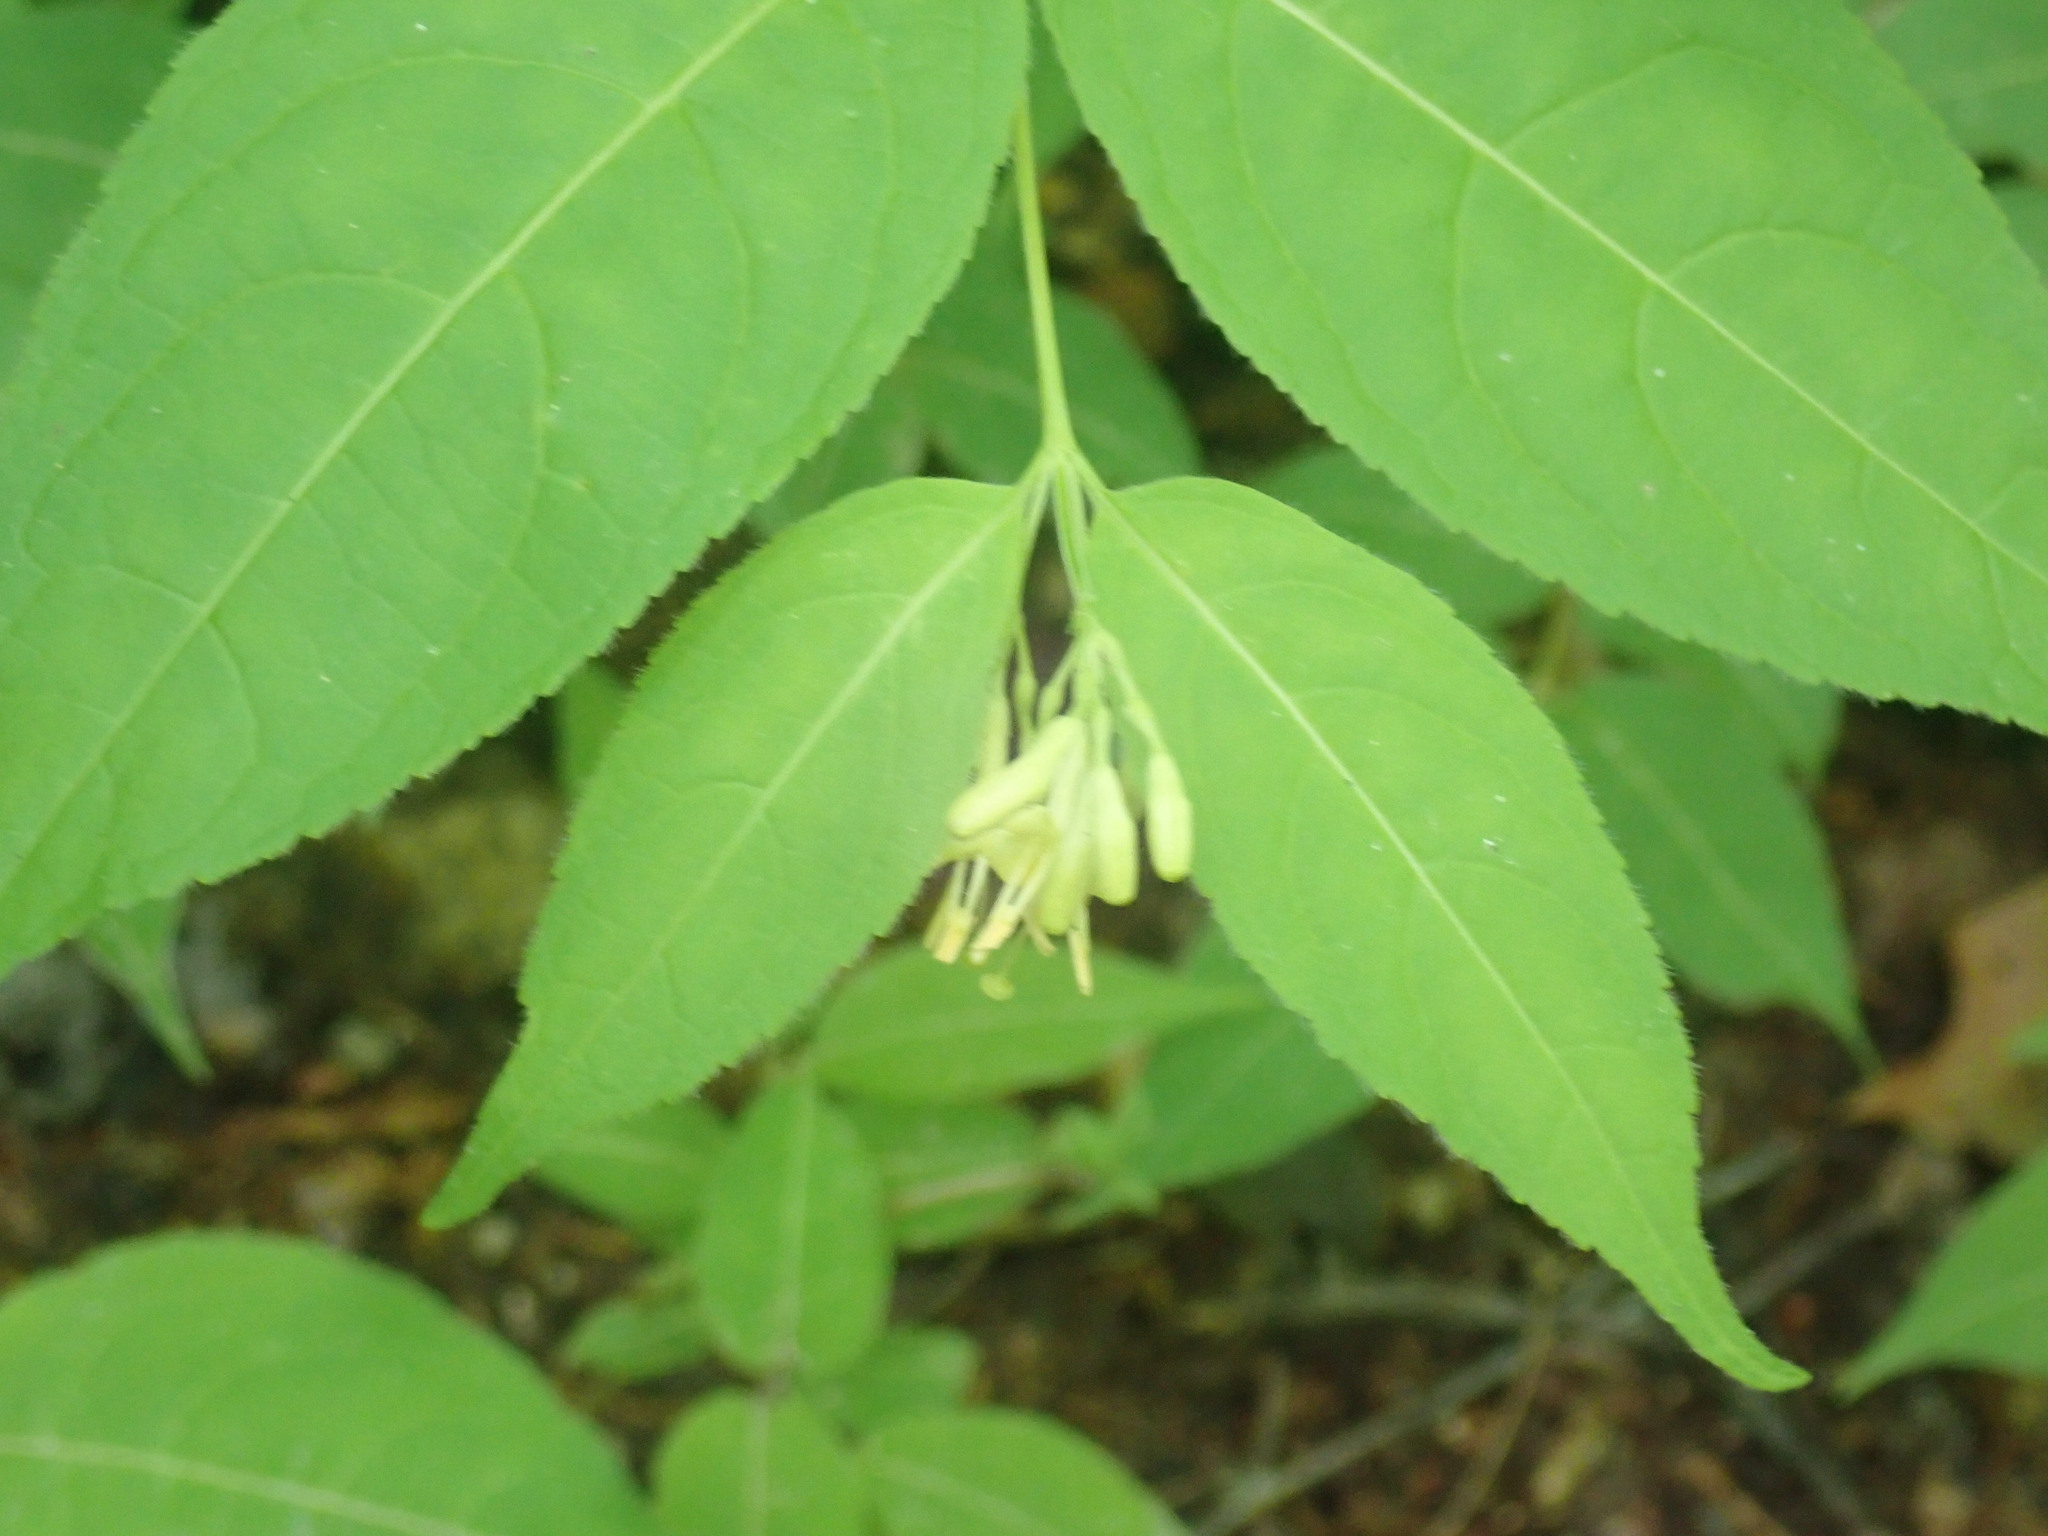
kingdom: Plantae
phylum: Tracheophyta
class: Magnoliopsida
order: Dipsacales
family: Caprifoliaceae
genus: Diervilla
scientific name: Diervilla lonicera
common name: Bush-honeysuckle
